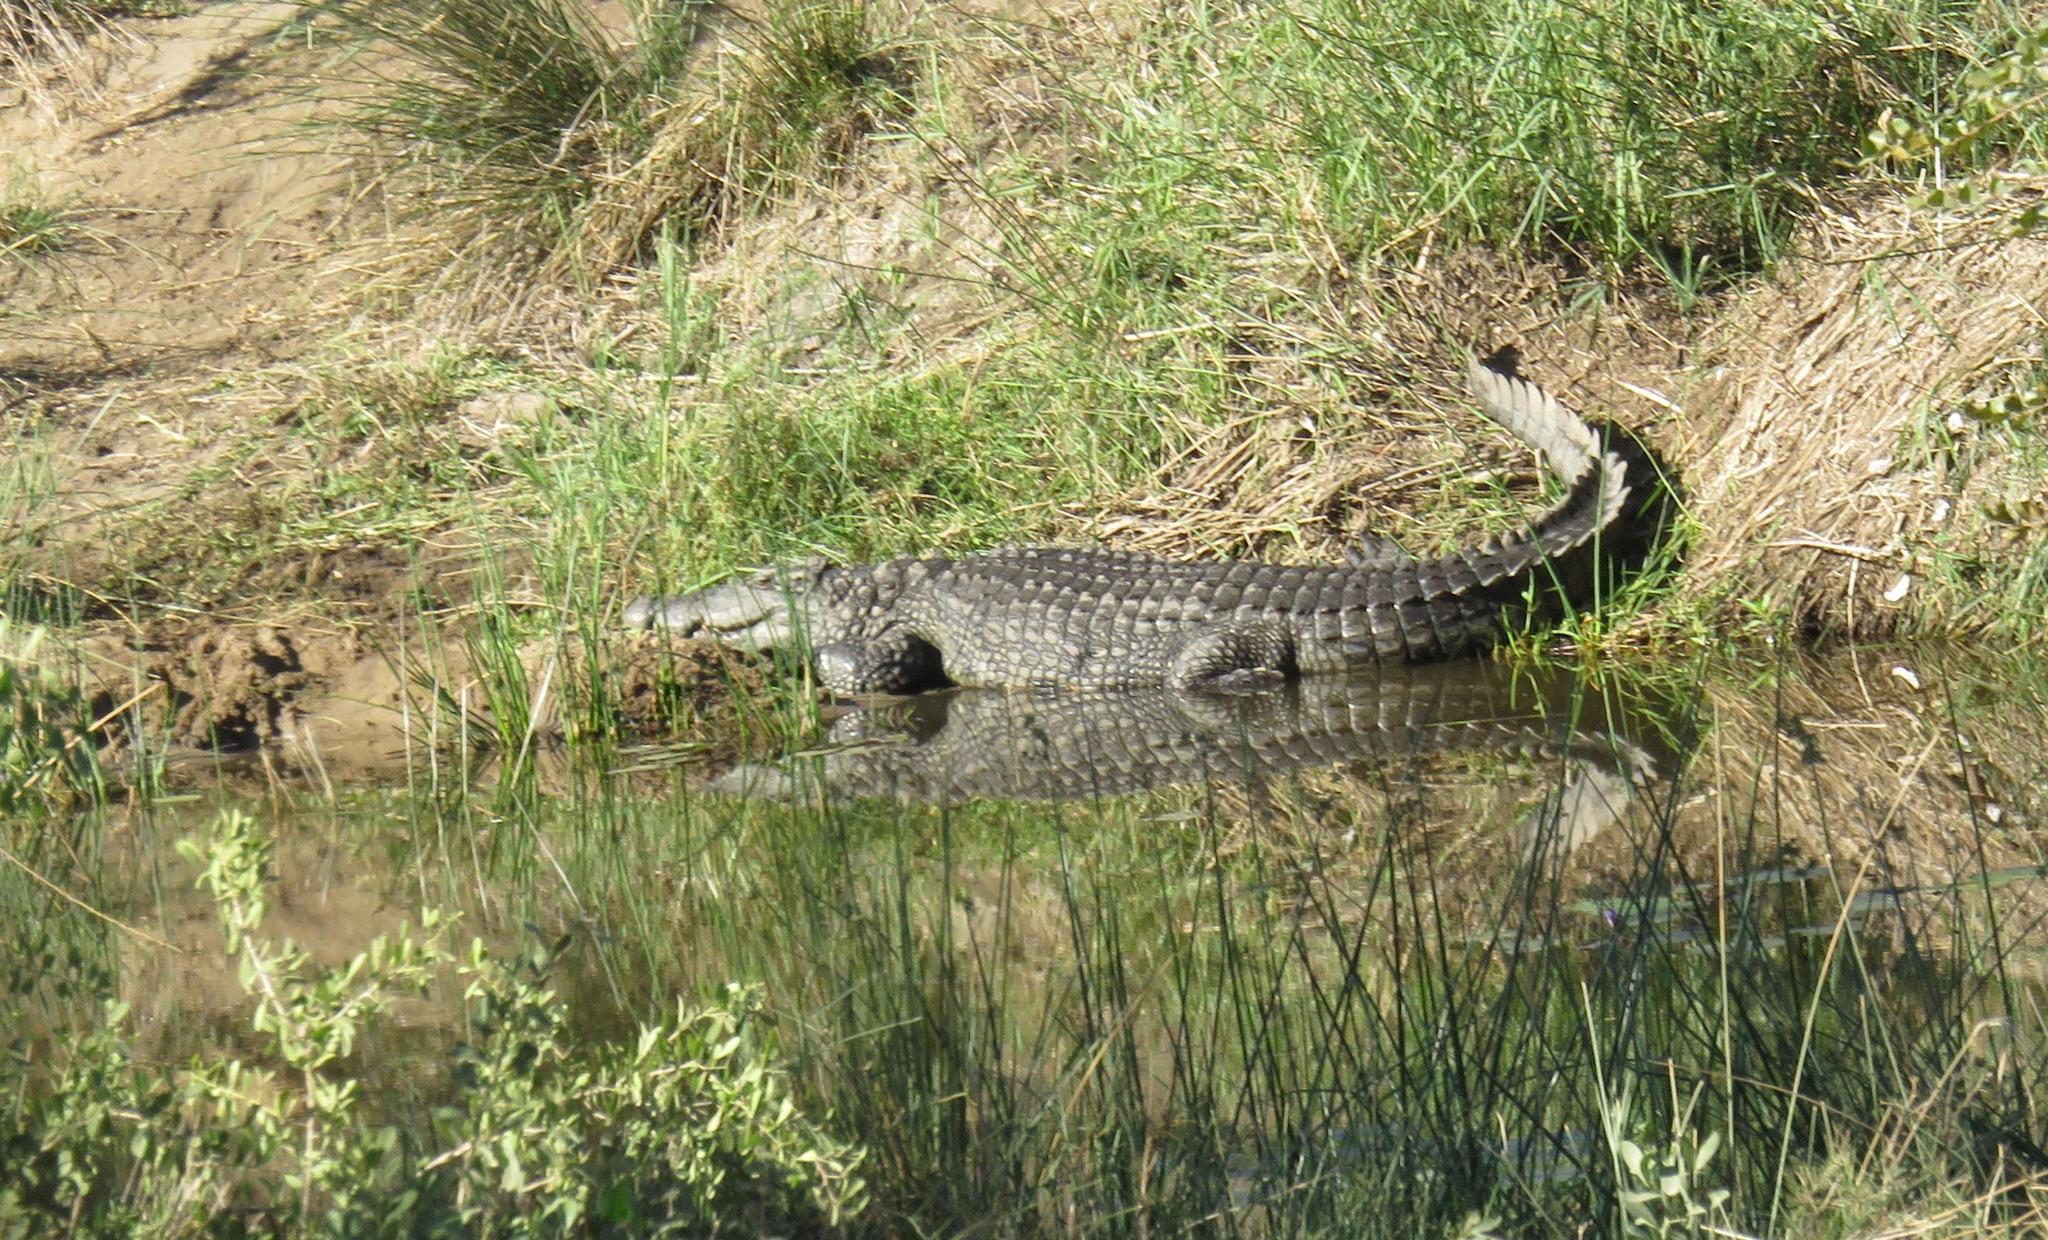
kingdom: Animalia
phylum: Chordata
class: Crocodylia
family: Crocodylidae
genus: Crocodylus
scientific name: Crocodylus niloticus
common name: Nile crocodile
